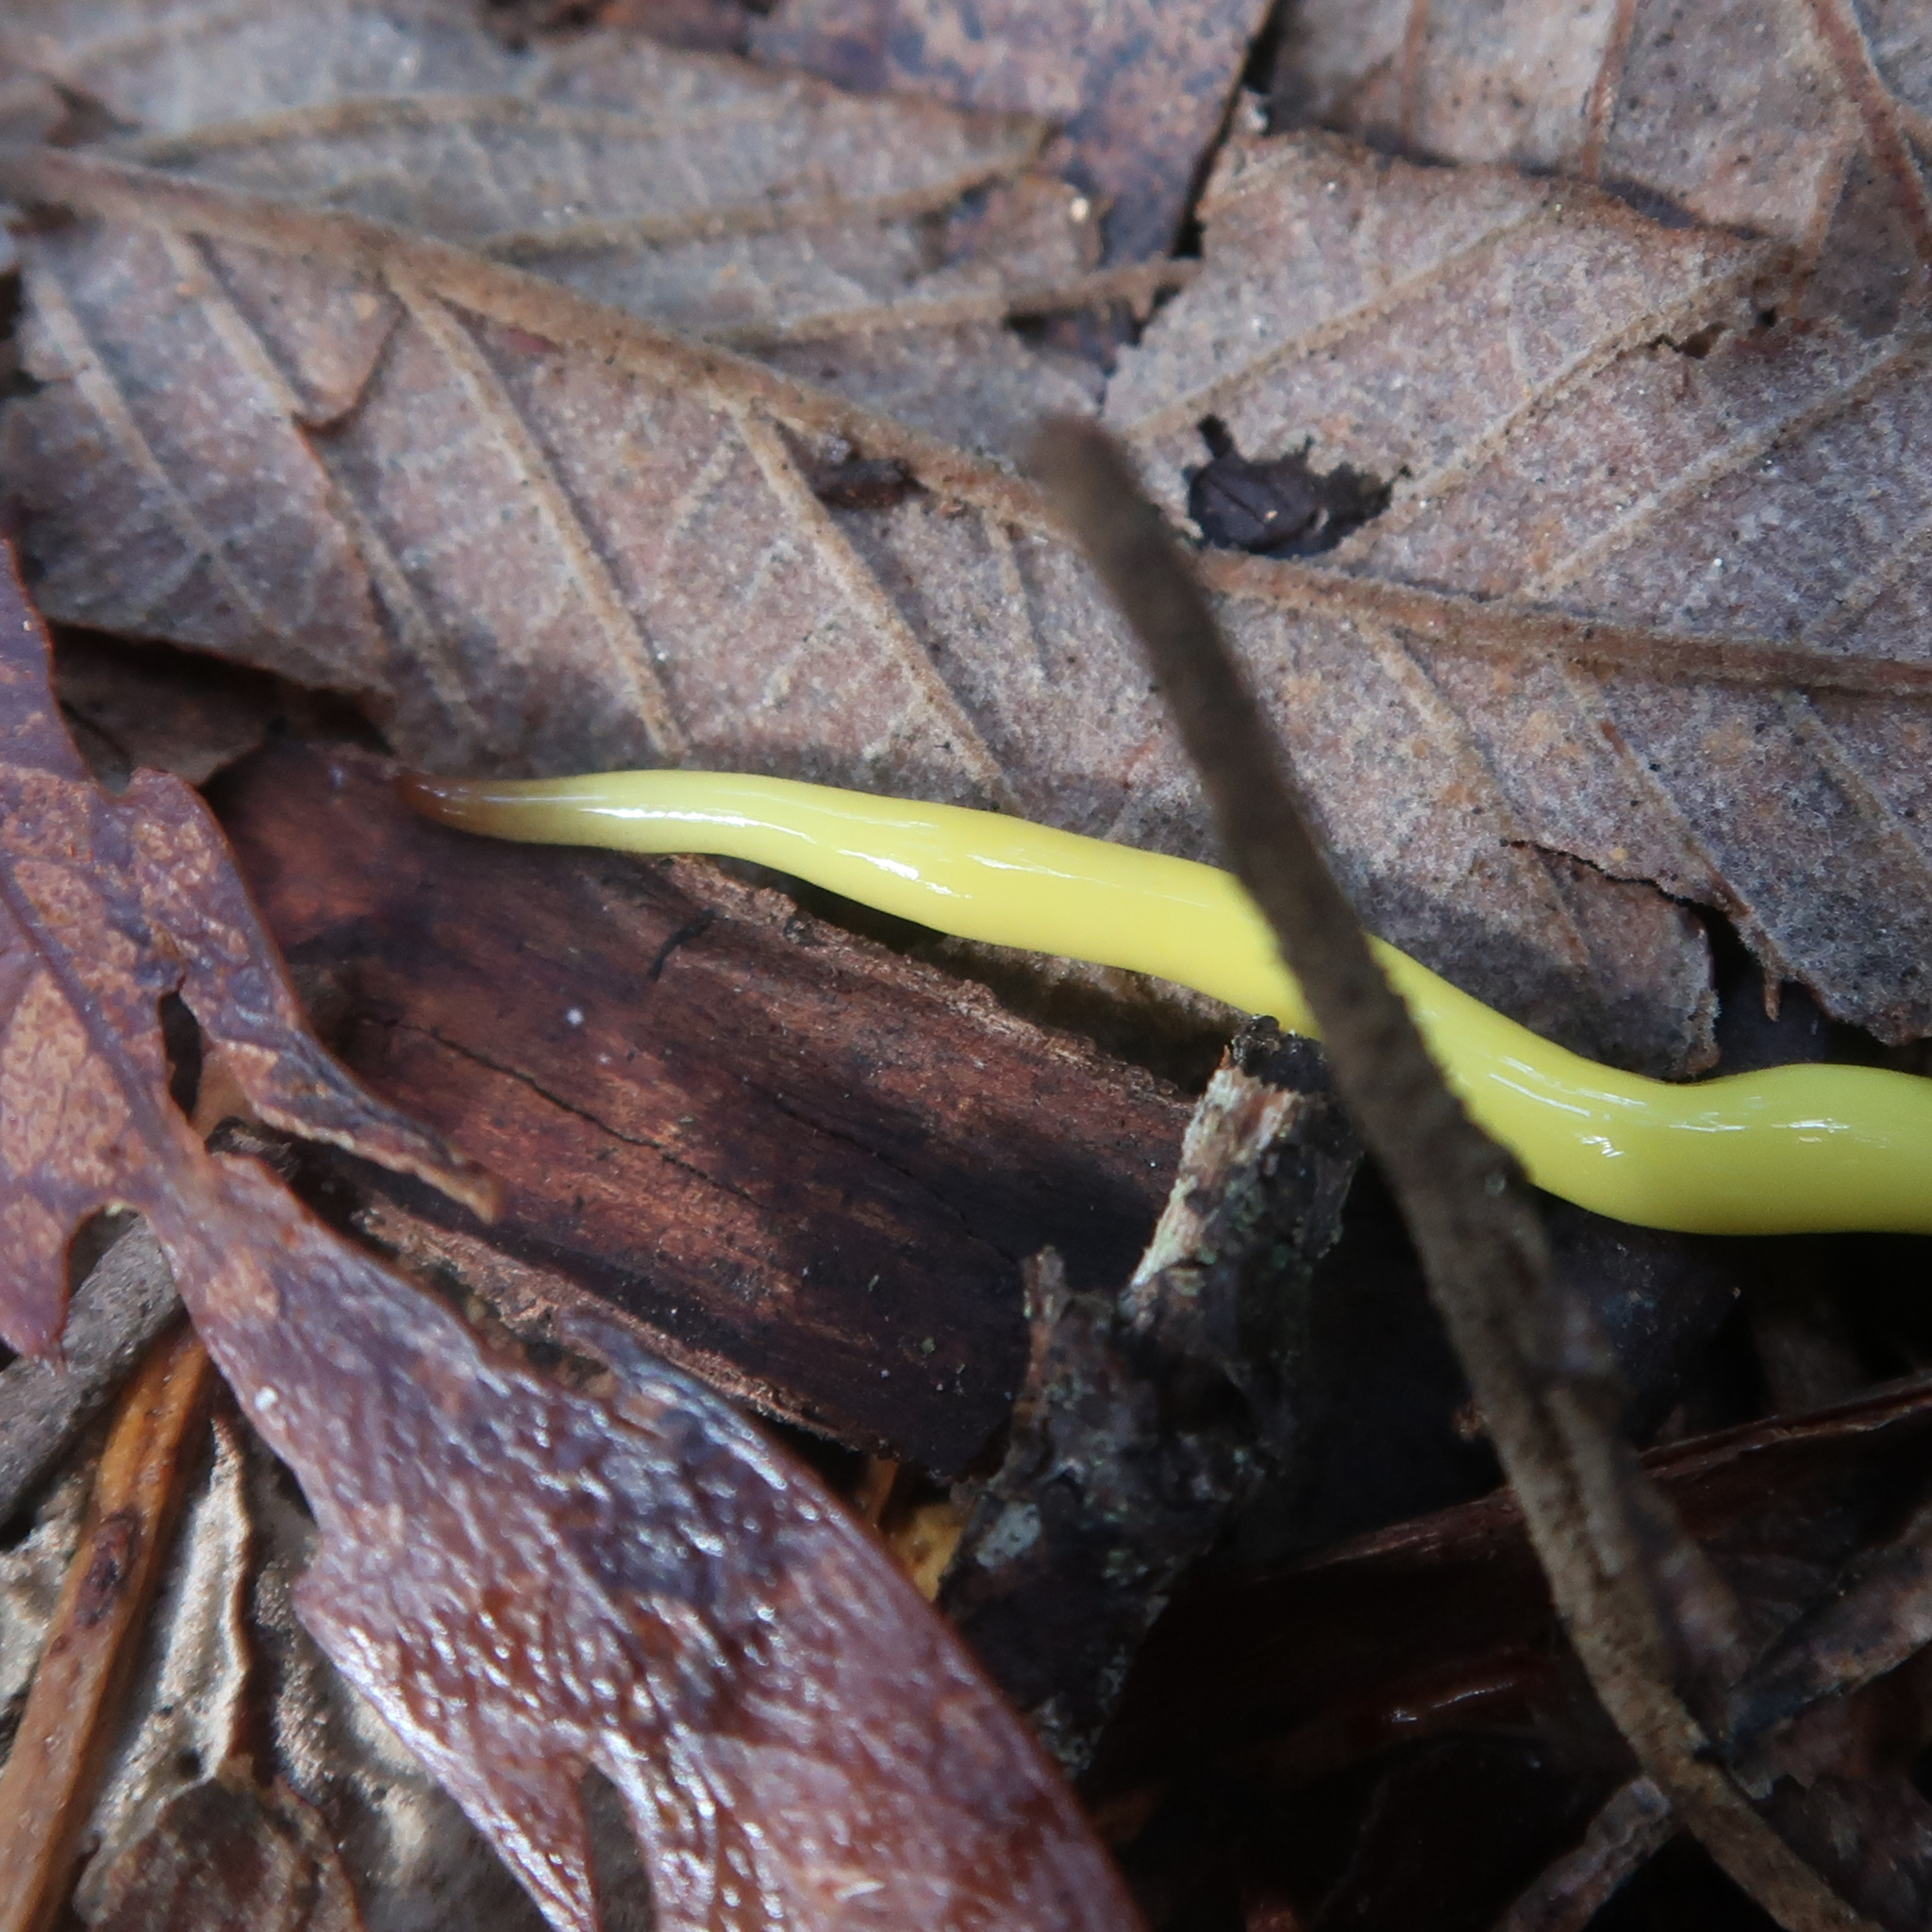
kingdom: Animalia
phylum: Platyhelminthes
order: Tricladida
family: Geoplanidae
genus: Fletchamia
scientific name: Fletchamia sugdeni
